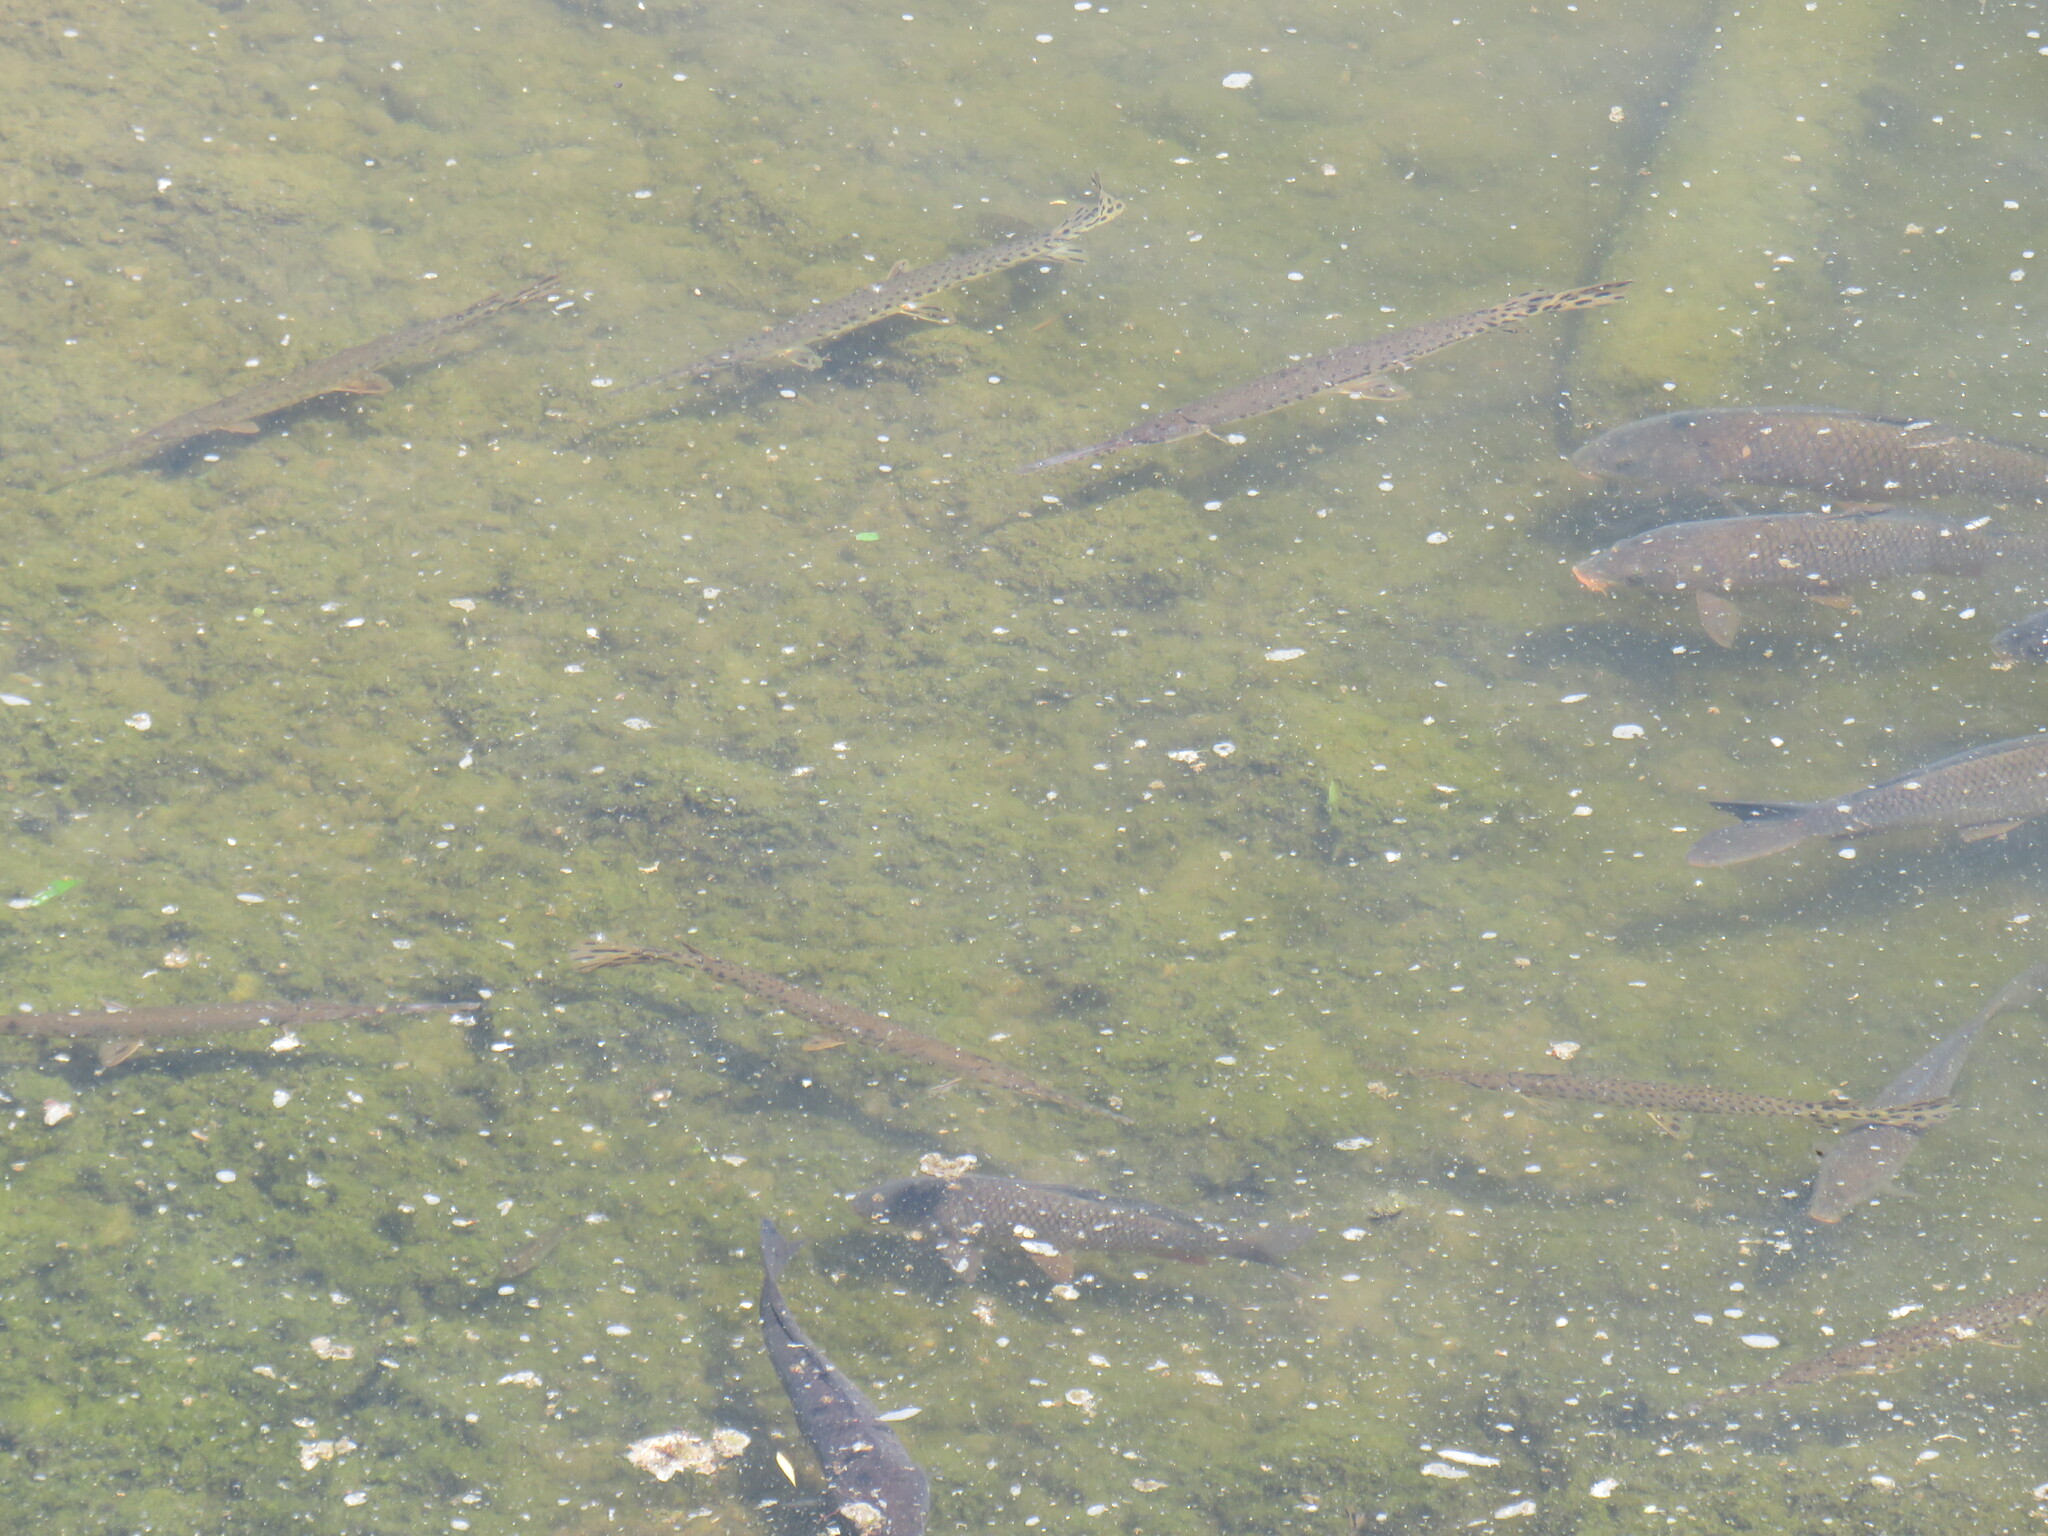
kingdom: Animalia
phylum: Chordata
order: Lepisosteiformes
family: Lepisosteidae
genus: Lepisosteus
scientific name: Lepisosteus osseus
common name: Longnose gar
